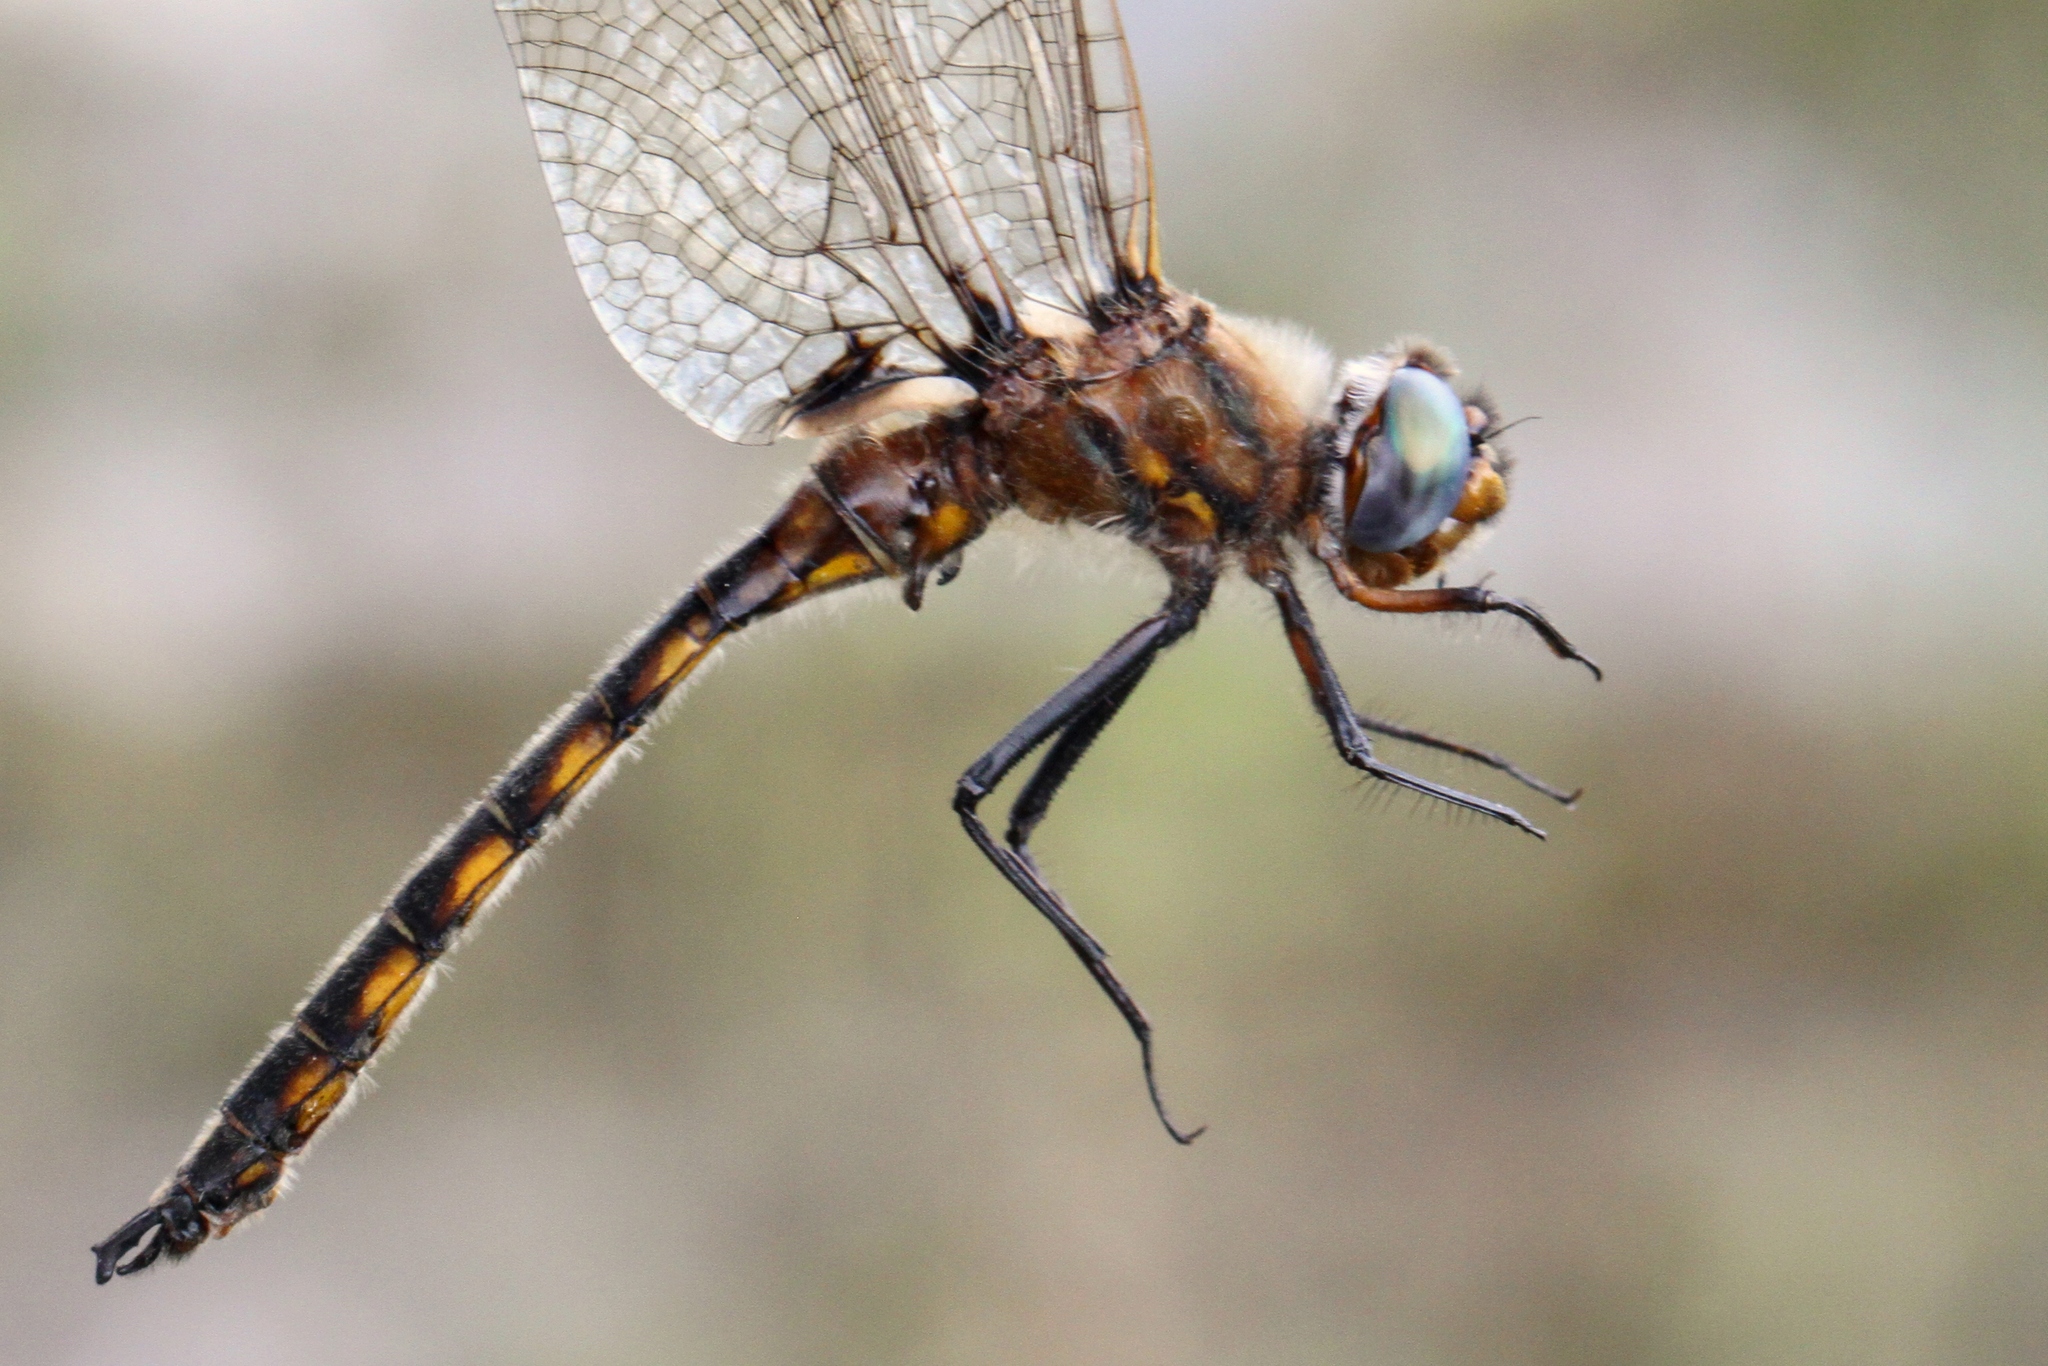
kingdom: Animalia
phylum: Arthropoda
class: Insecta
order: Odonata
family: Corduliidae
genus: Epitheca
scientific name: Epitheca canis
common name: Beaverpond baskettail
